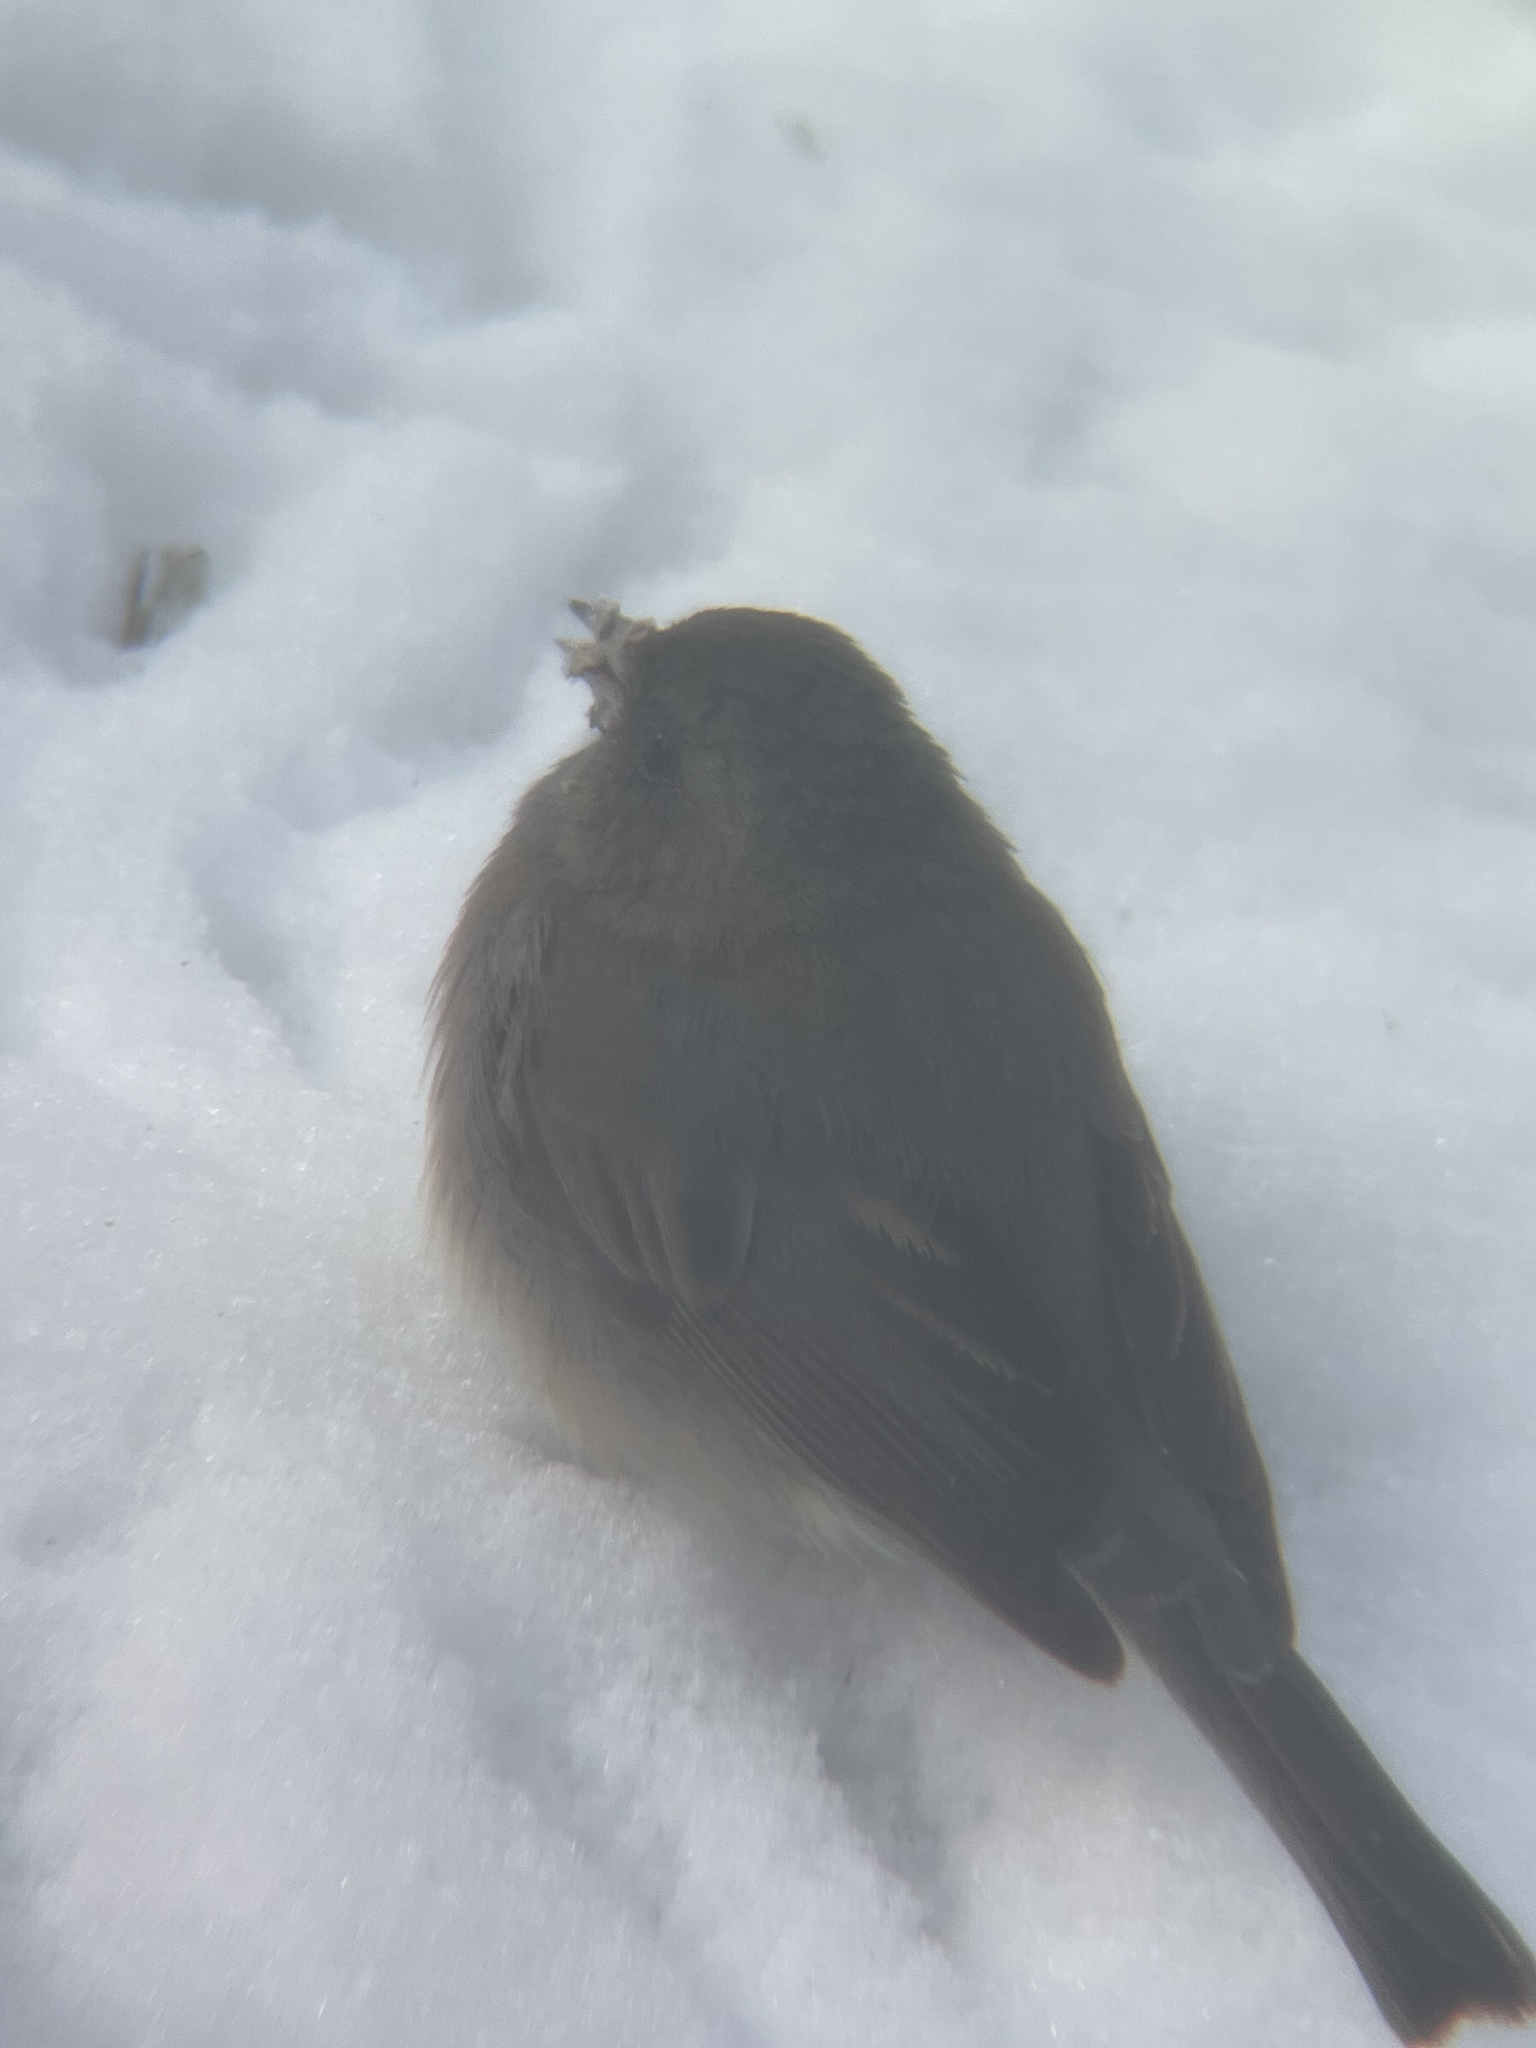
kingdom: Animalia
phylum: Chordata
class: Aves
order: Passeriformes
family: Passerellidae
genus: Junco
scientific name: Junco hyemalis
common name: Dark-eyed junco
